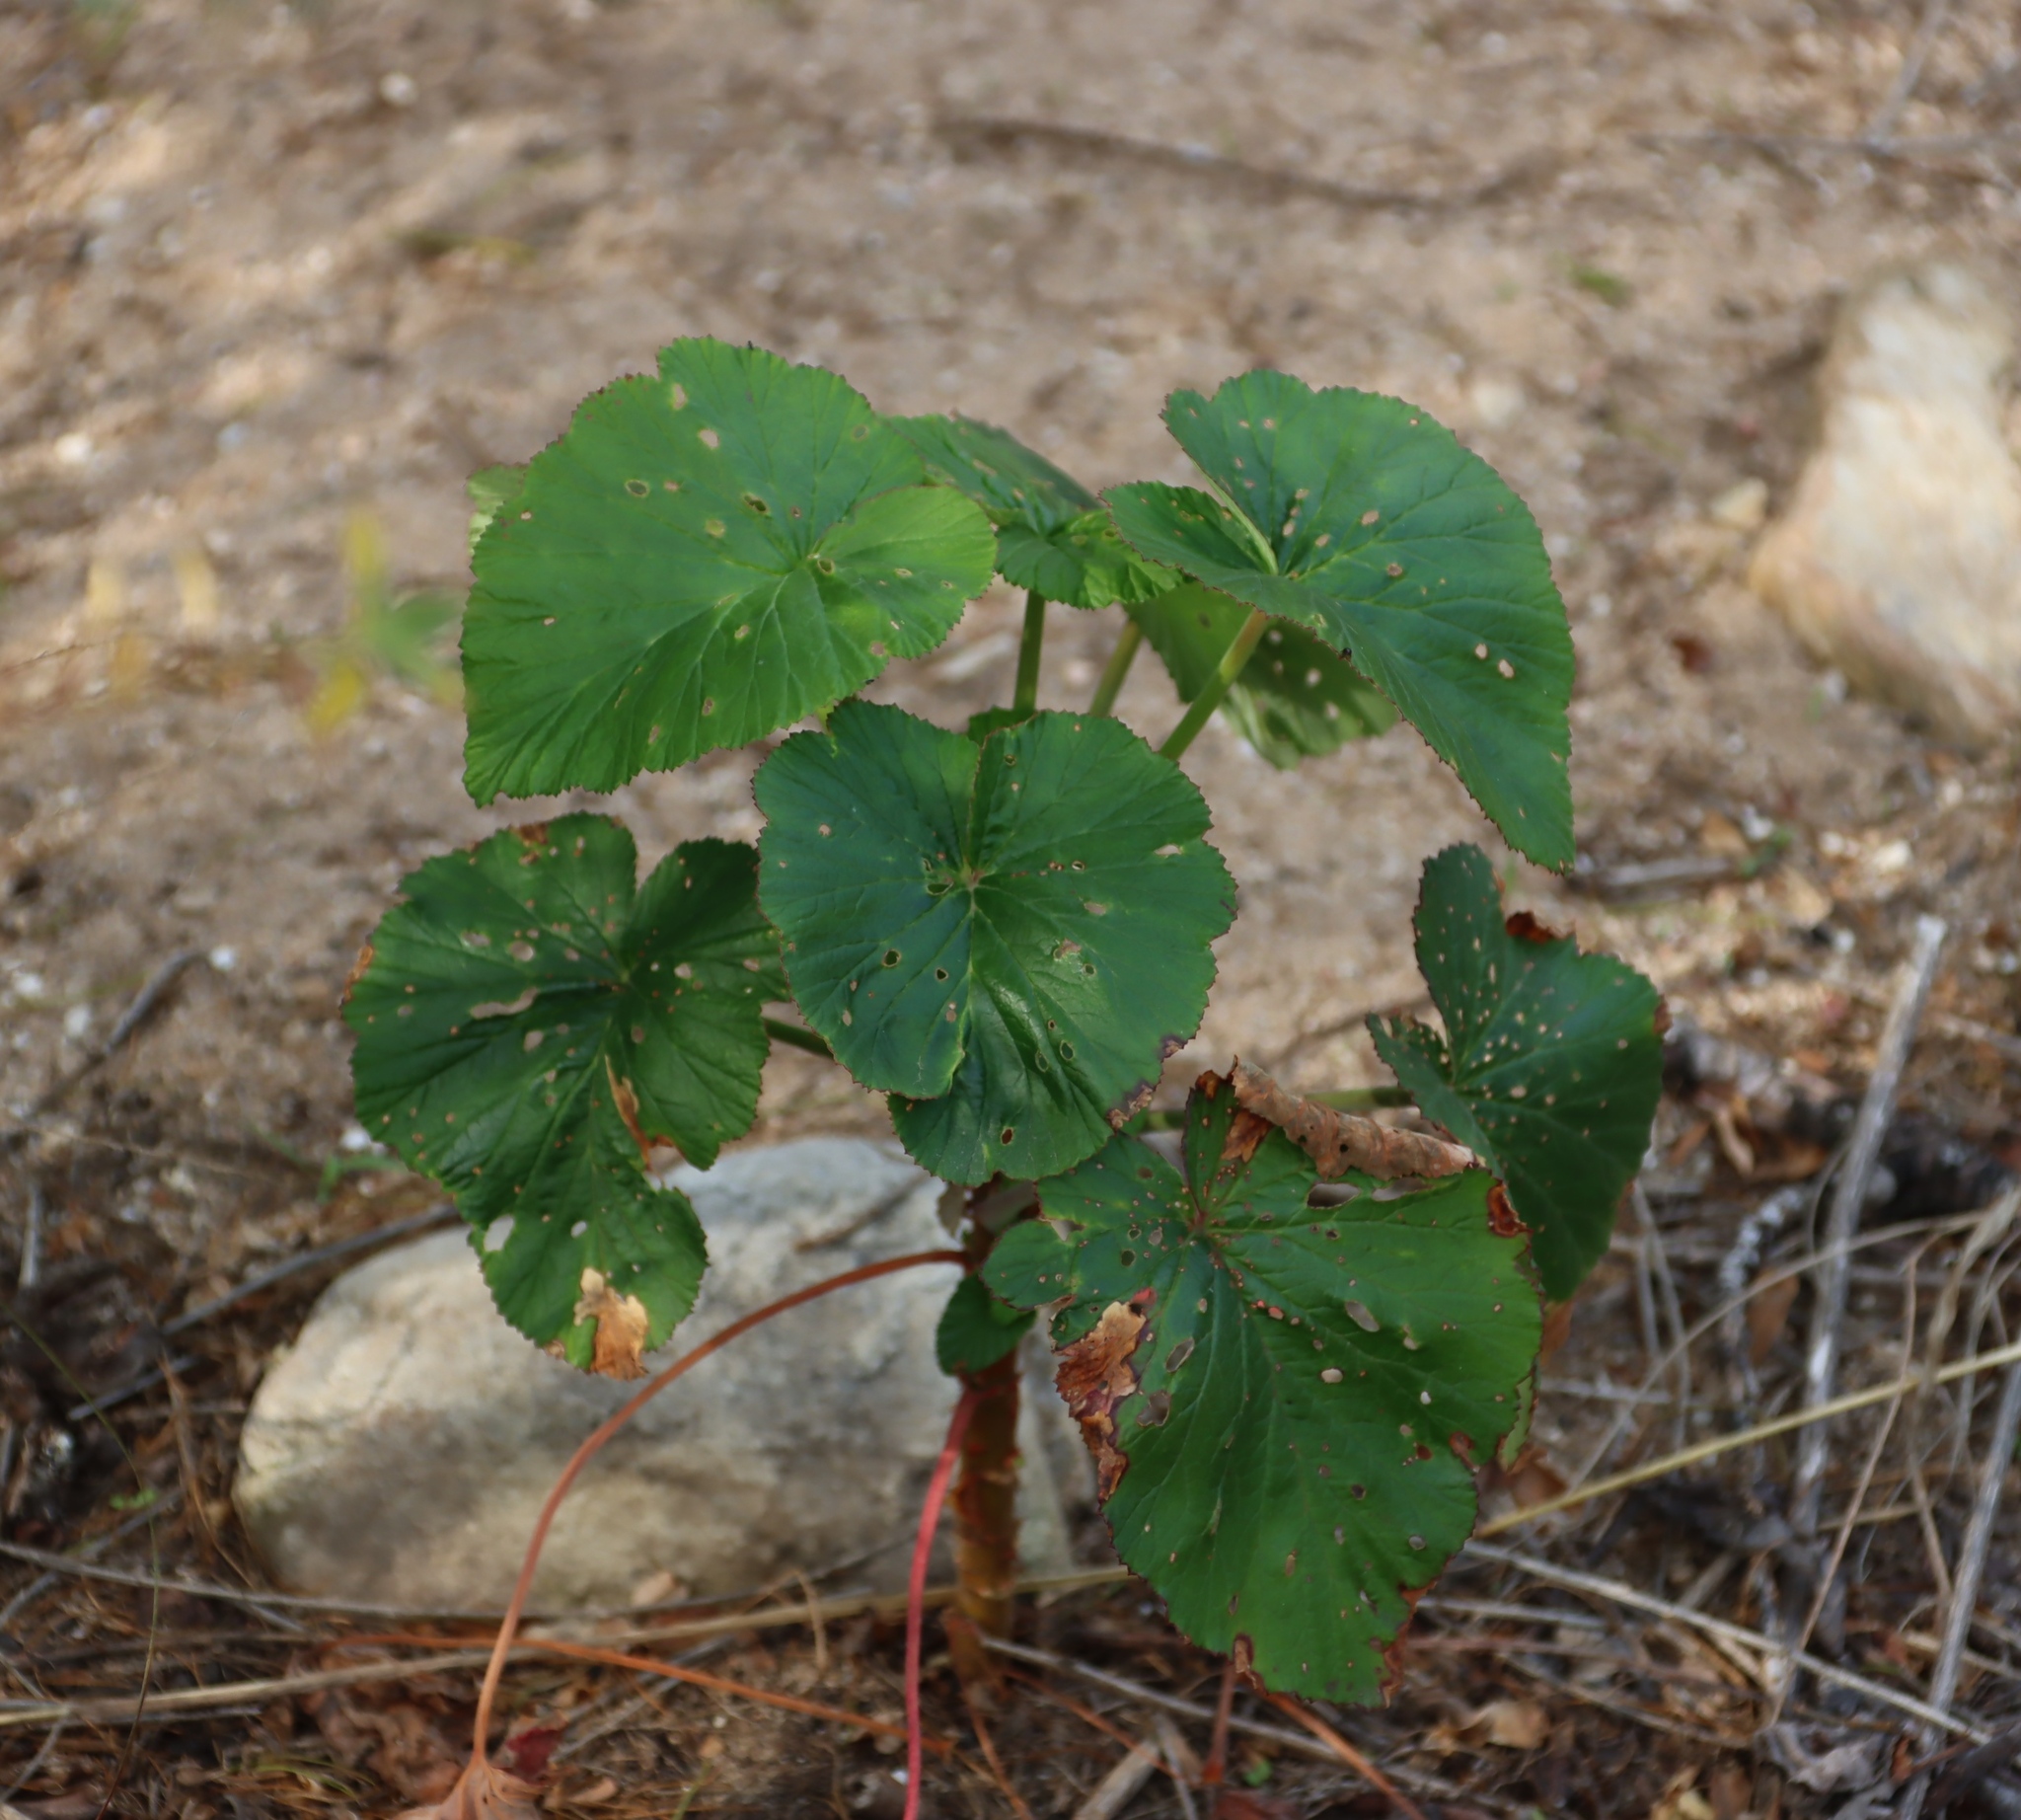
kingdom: Plantae
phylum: Tracheophyta
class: Magnoliopsida
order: Geraniales
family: Geraniaceae
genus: Pelargonium
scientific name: Pelargonium cordifolium
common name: Heart-leaf pelargonium
